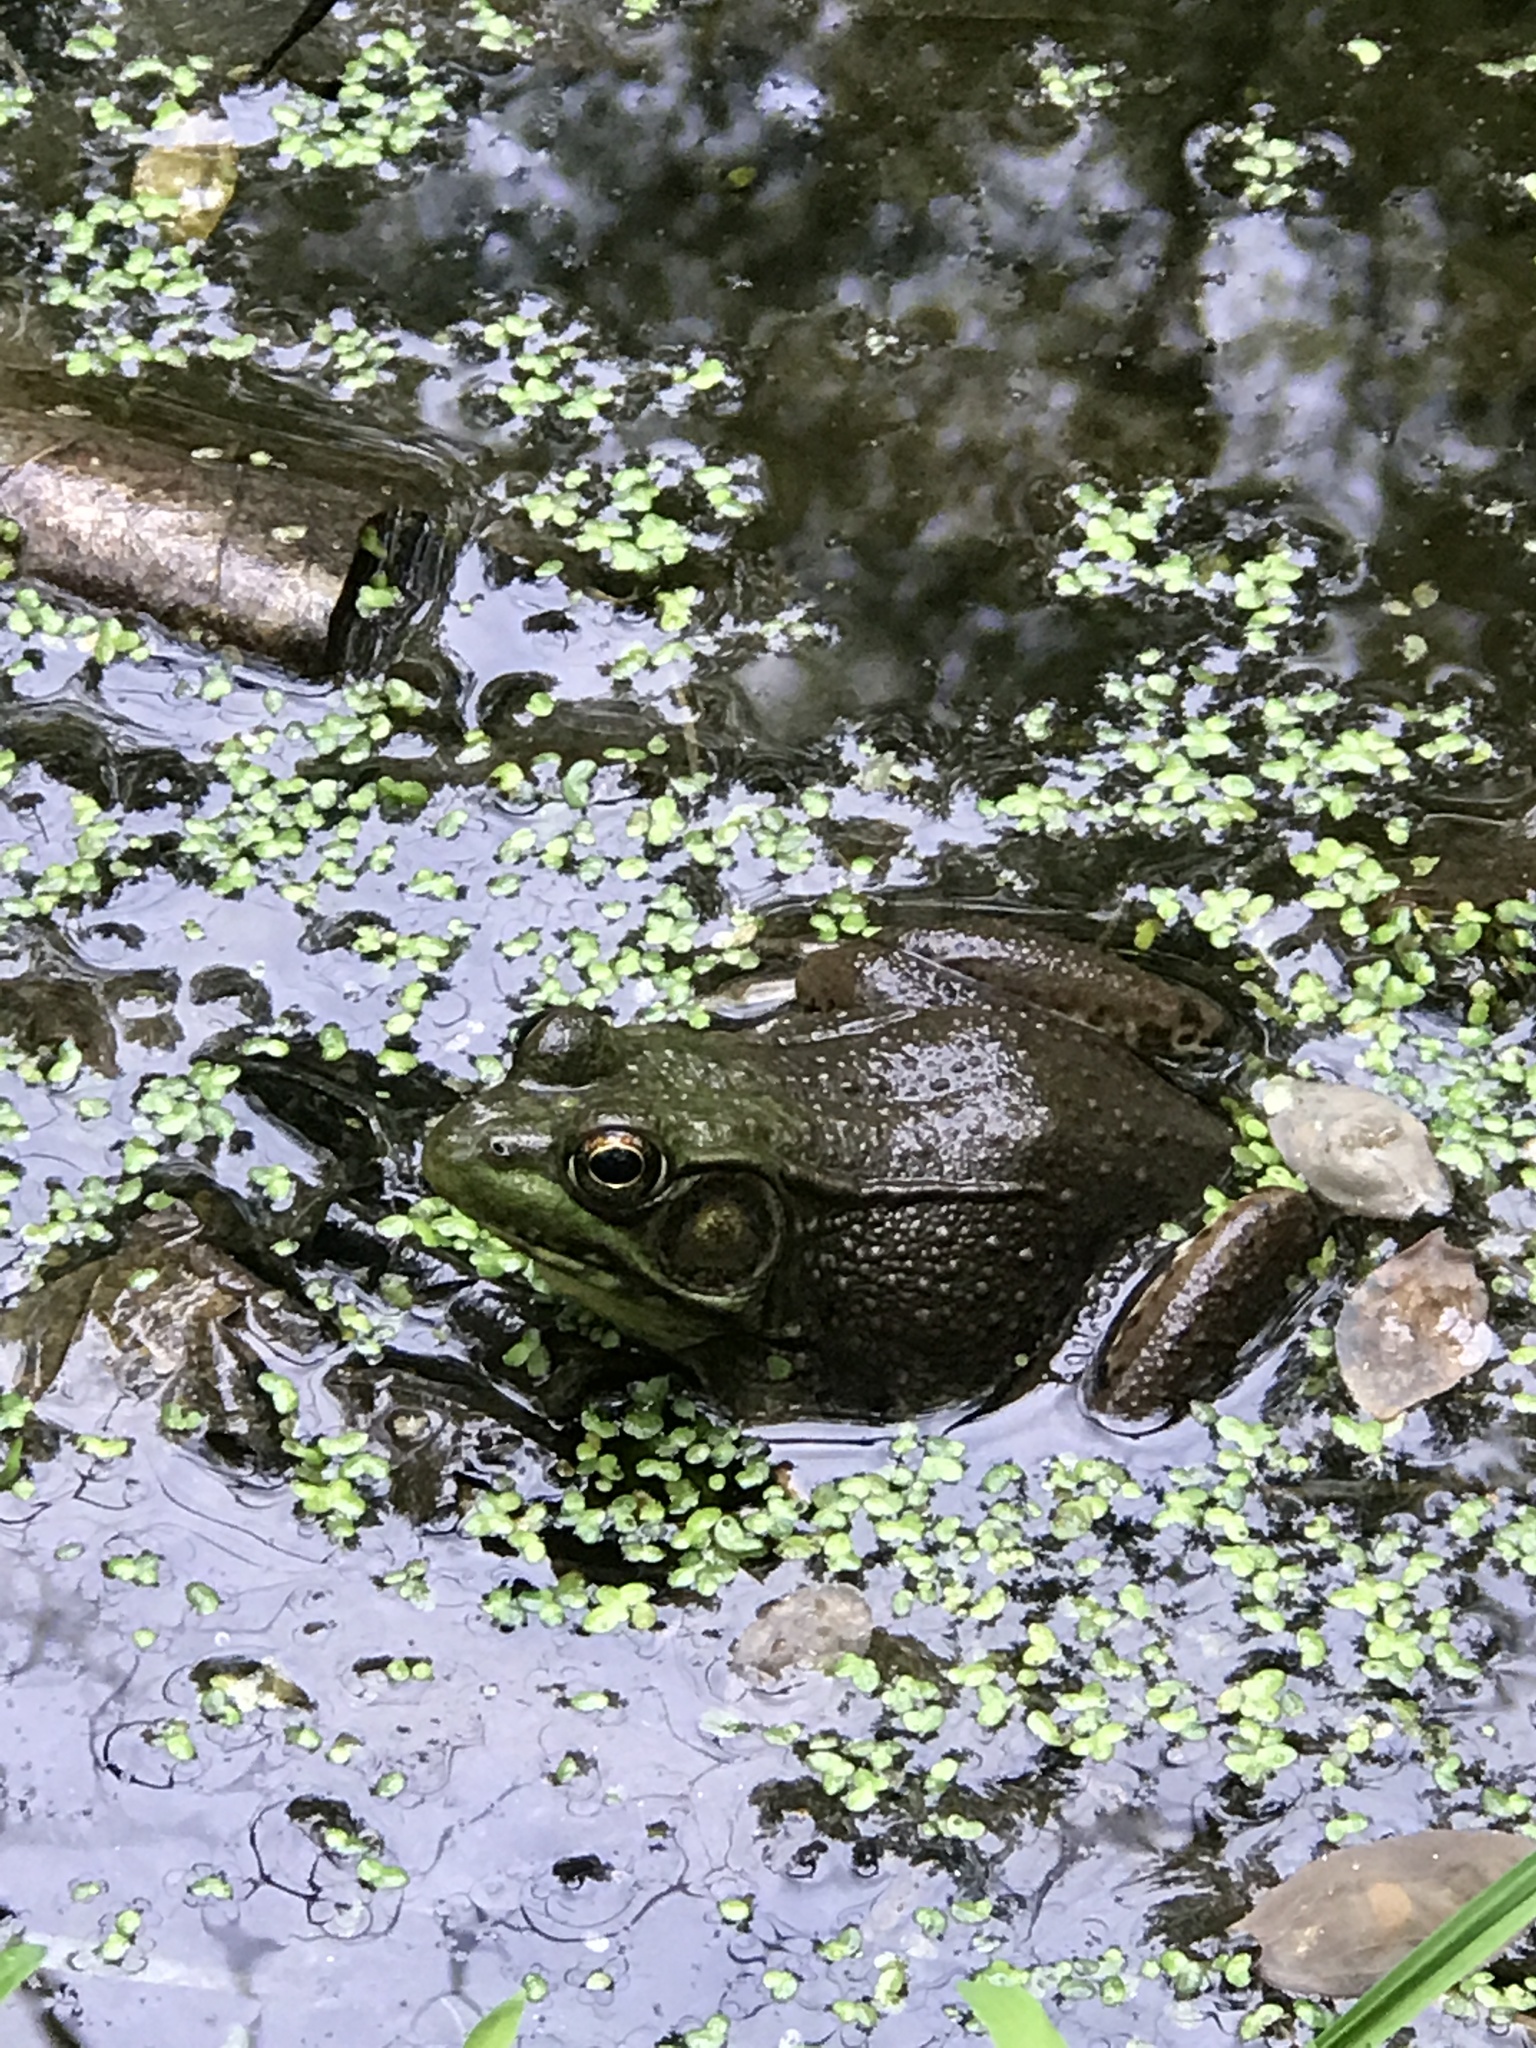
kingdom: Animalia
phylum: Chordata
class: Amphibia
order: Anura
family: Ranidae
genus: Lithobates
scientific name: Lithobates clamitans
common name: Green frog
